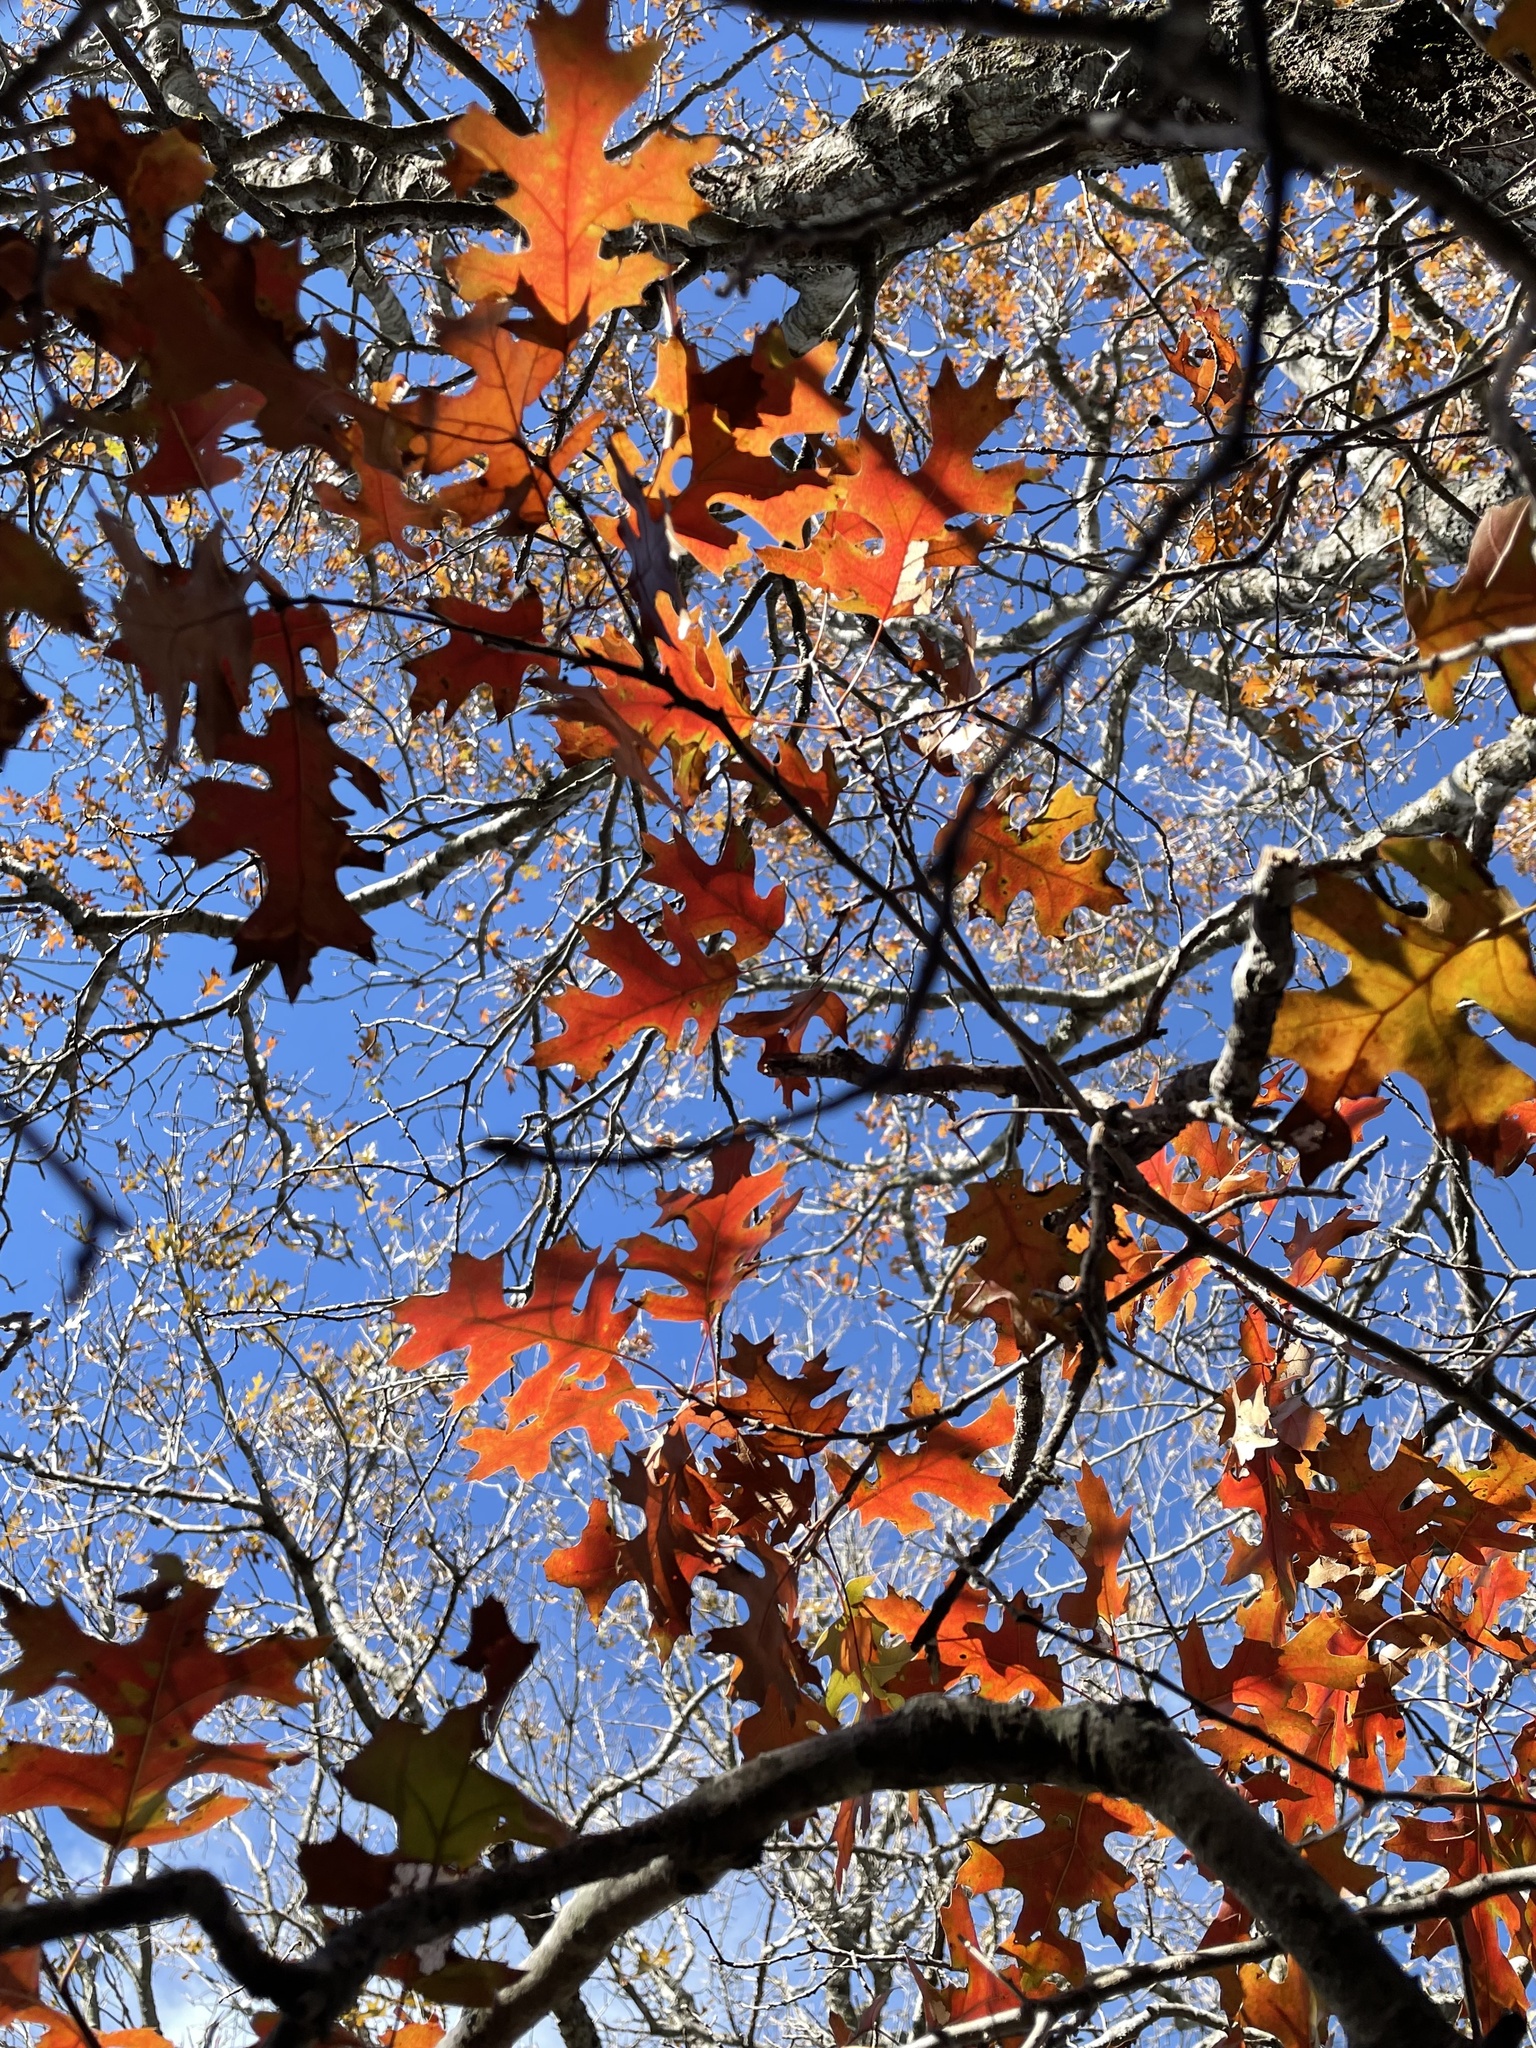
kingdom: Plantae
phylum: Tracheophyta
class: Magnoliopsida
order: Fagales
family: Fagaceae
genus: Quercus
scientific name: Quercus buckleyi
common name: Buckley oak
